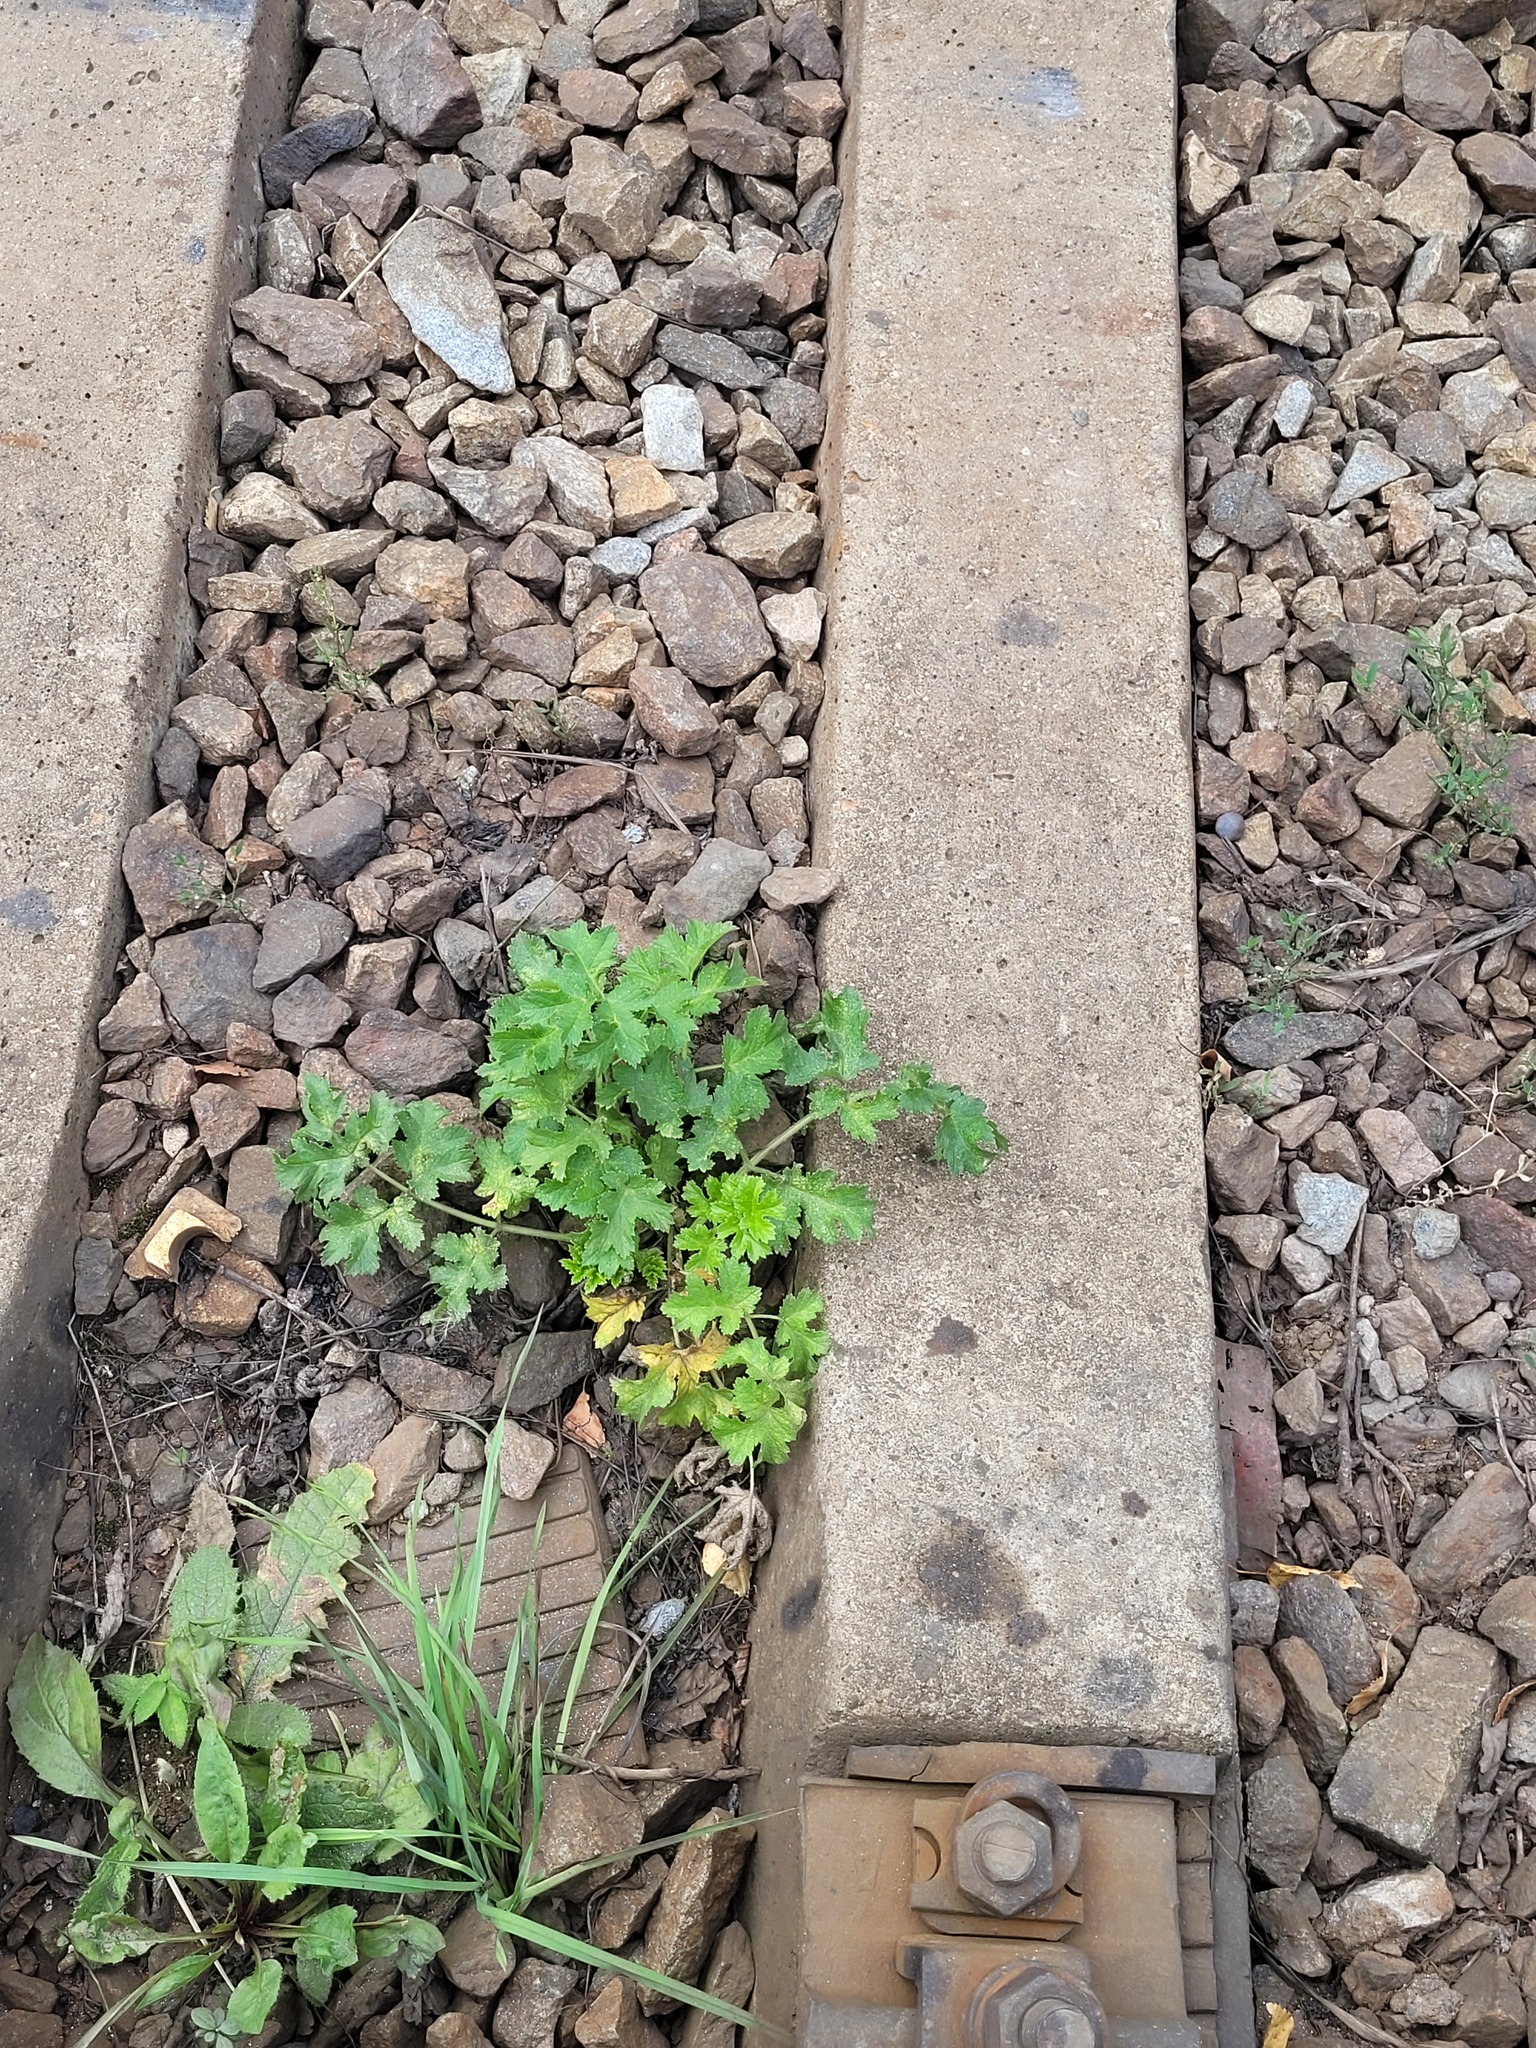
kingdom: Plantae
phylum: Tracheophyta
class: Magnoliopsida
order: Apiales
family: Apiaceae
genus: Heracleum
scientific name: Heracleum sphondylium
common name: Hogweed
